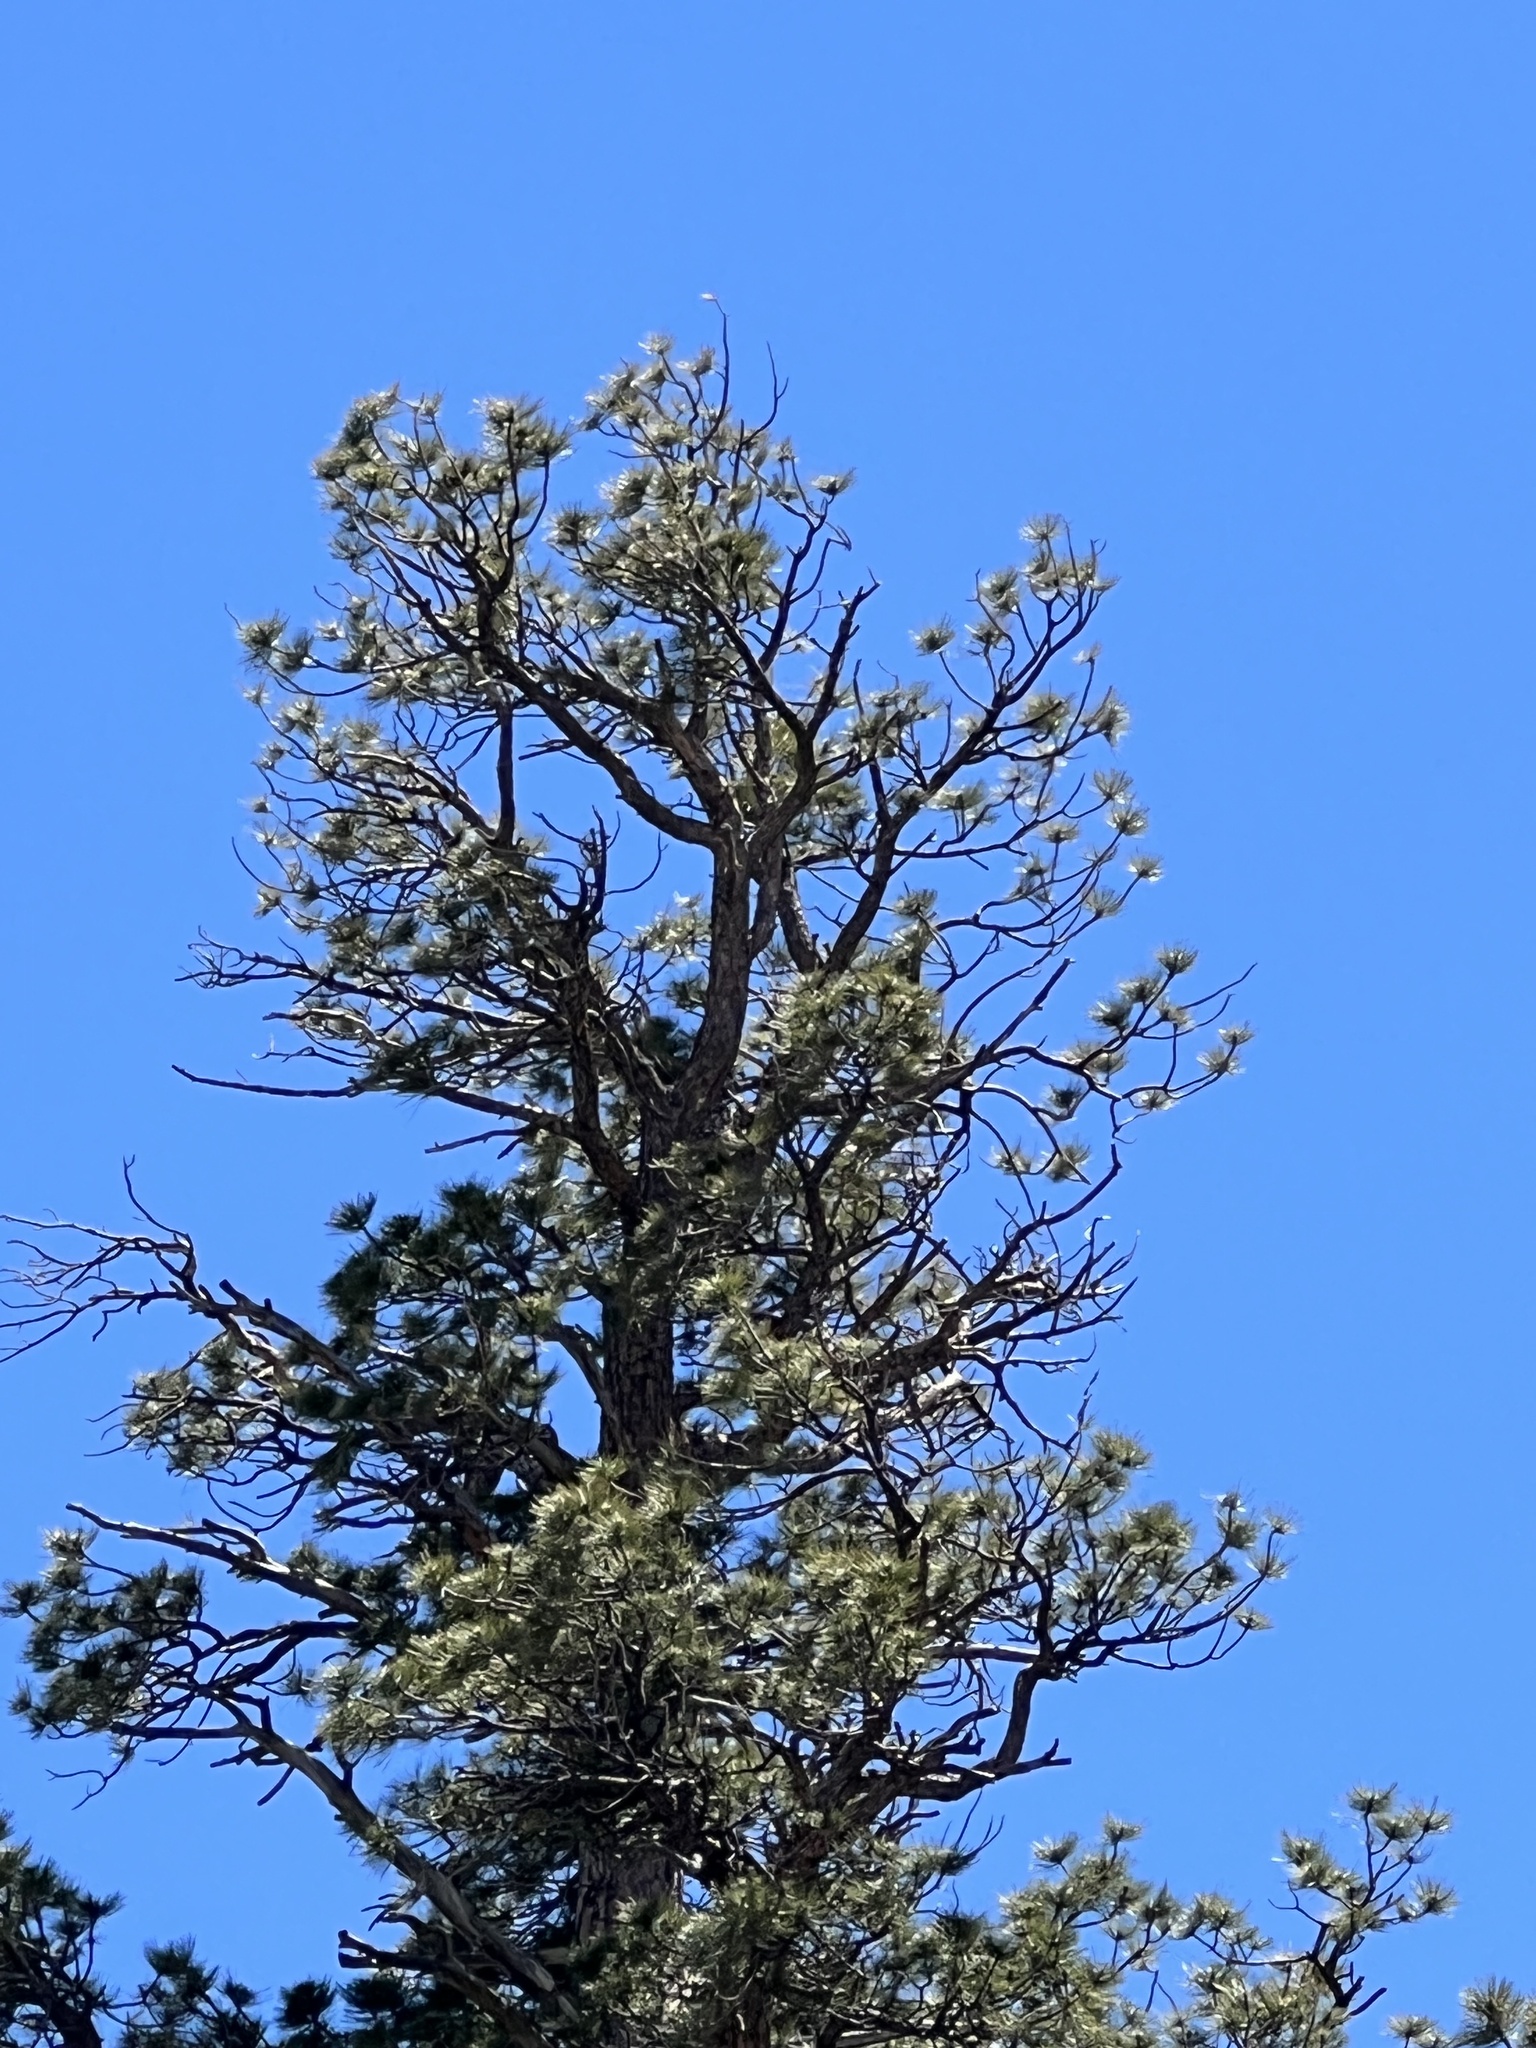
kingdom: Plantae
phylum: Tracheophyta
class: Pinopsida
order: Pinales
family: Pinaceae
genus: Pinus
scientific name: Pinus ponderosa
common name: Western yellow-pine
